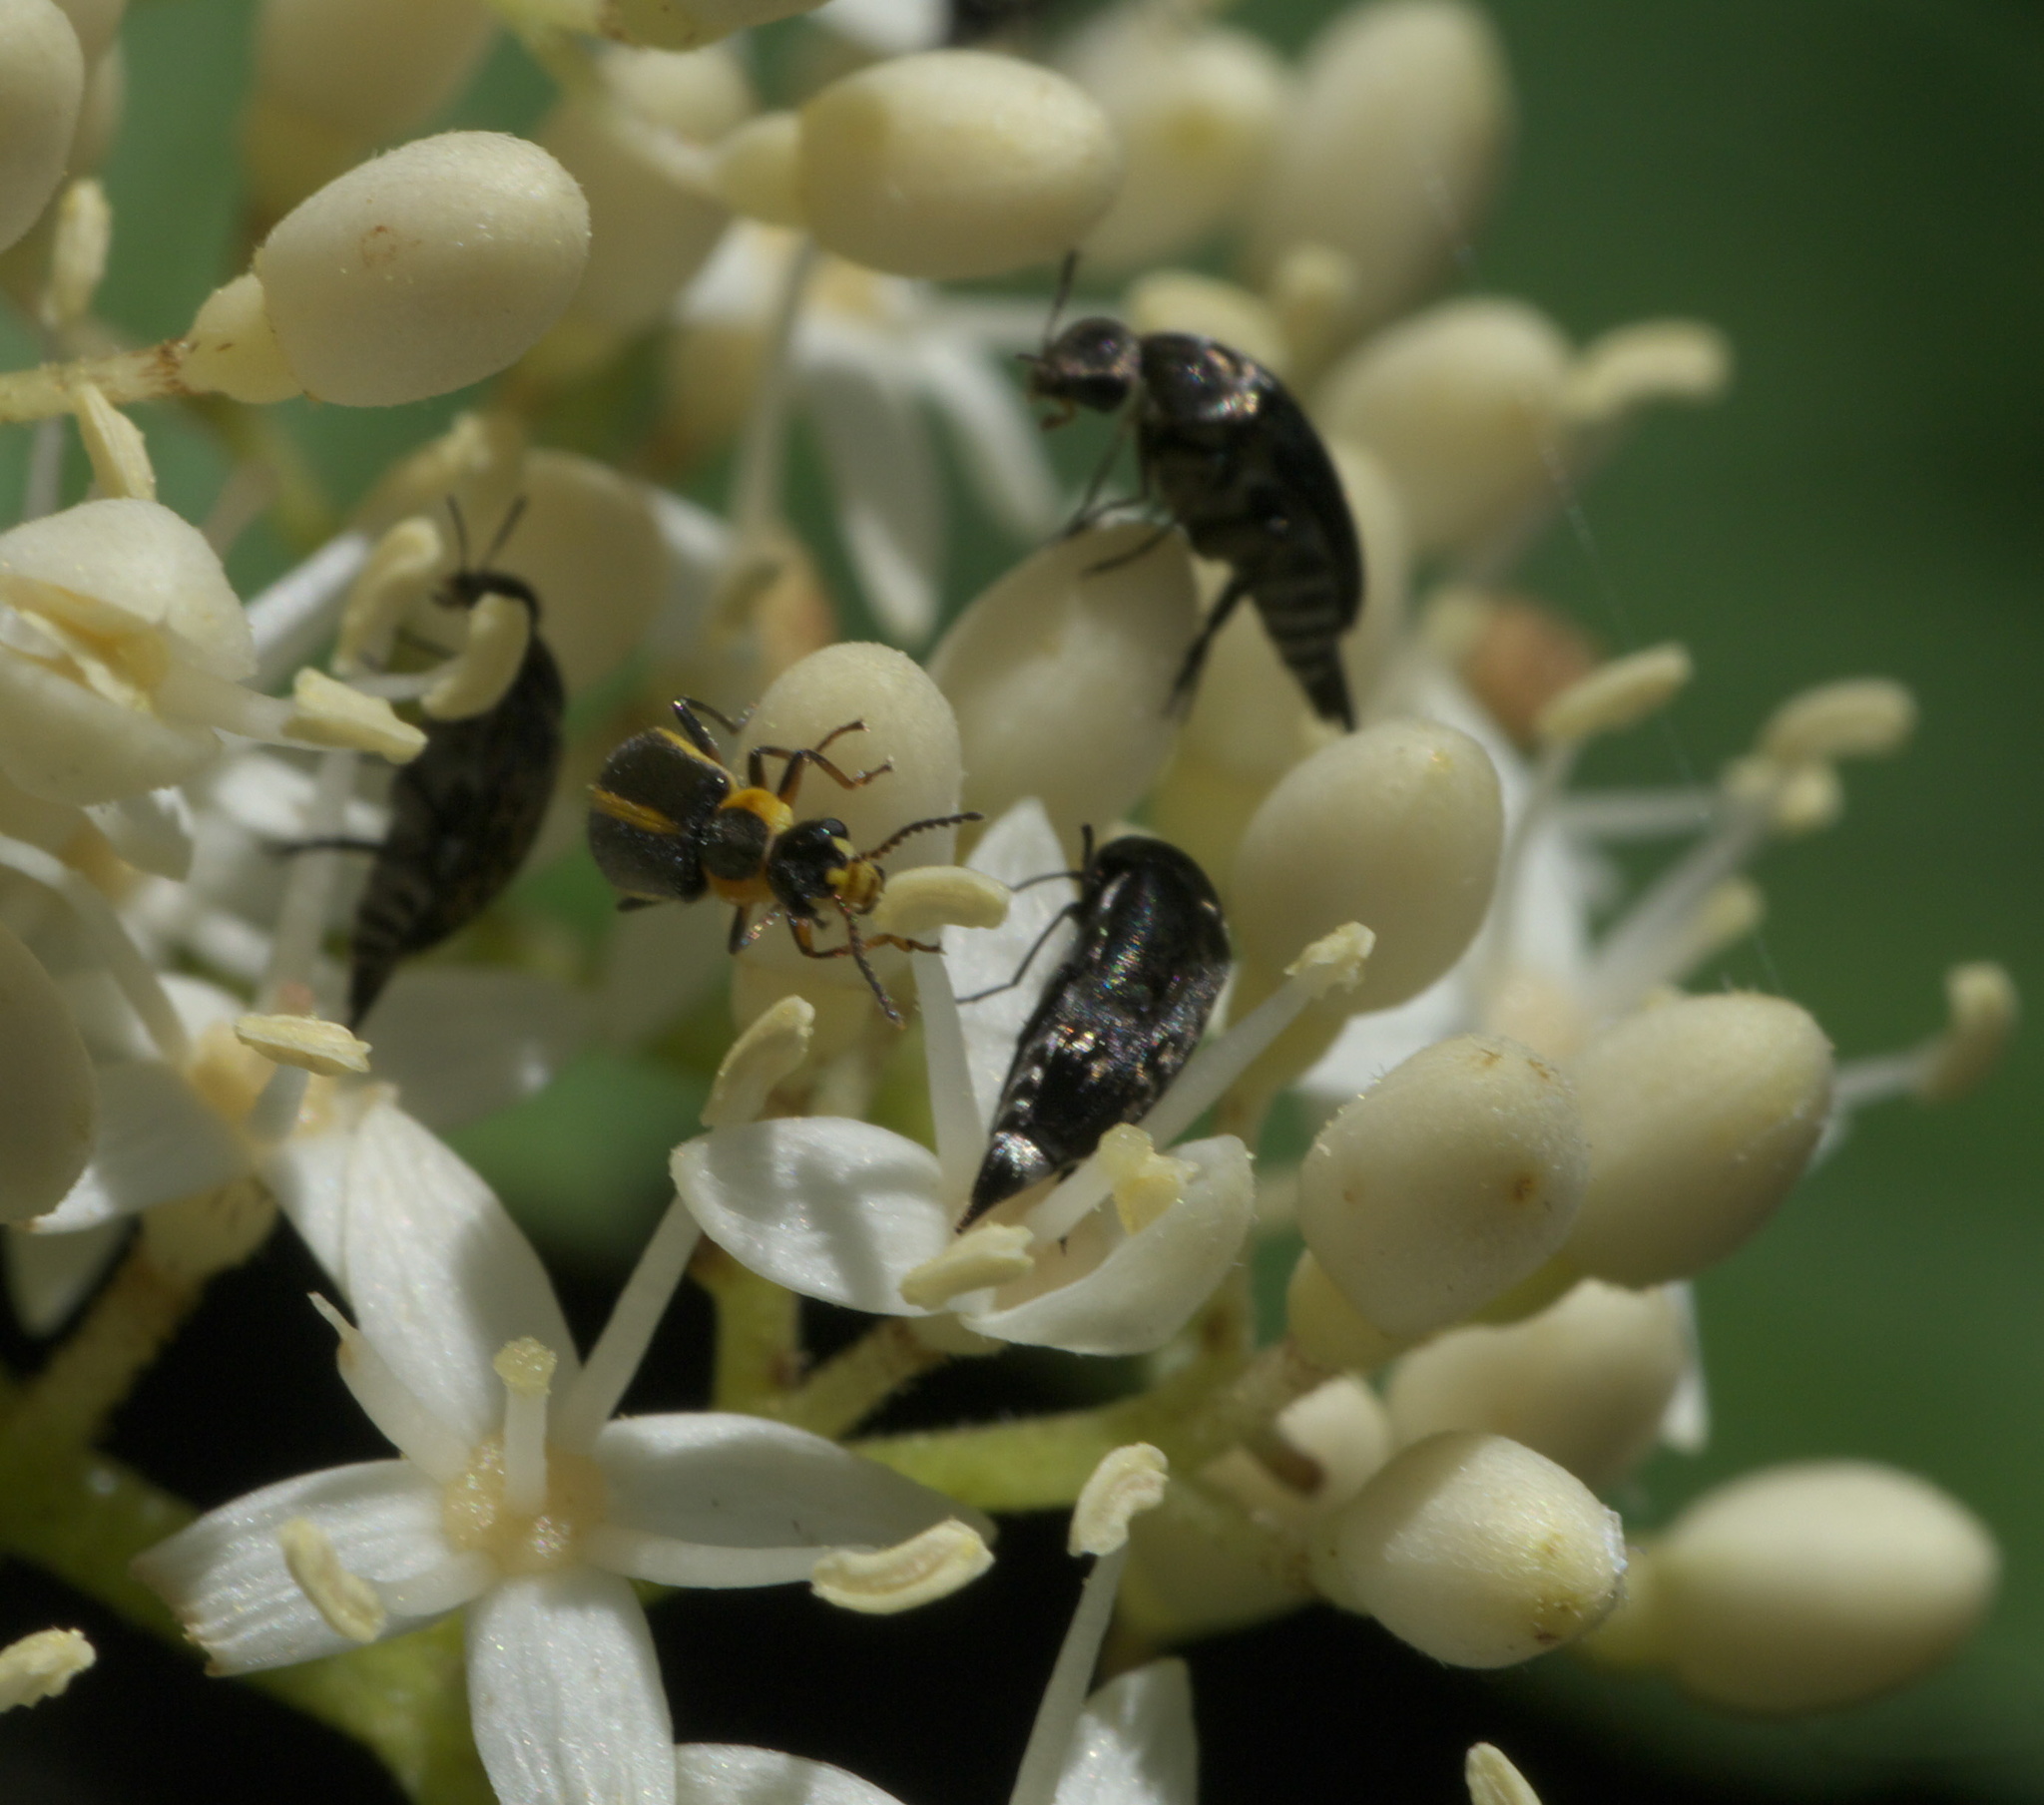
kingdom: Animalia
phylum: Arthropoda
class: Insecta
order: Coleoptera
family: Malachiidae
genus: Attalus
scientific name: Attalus
